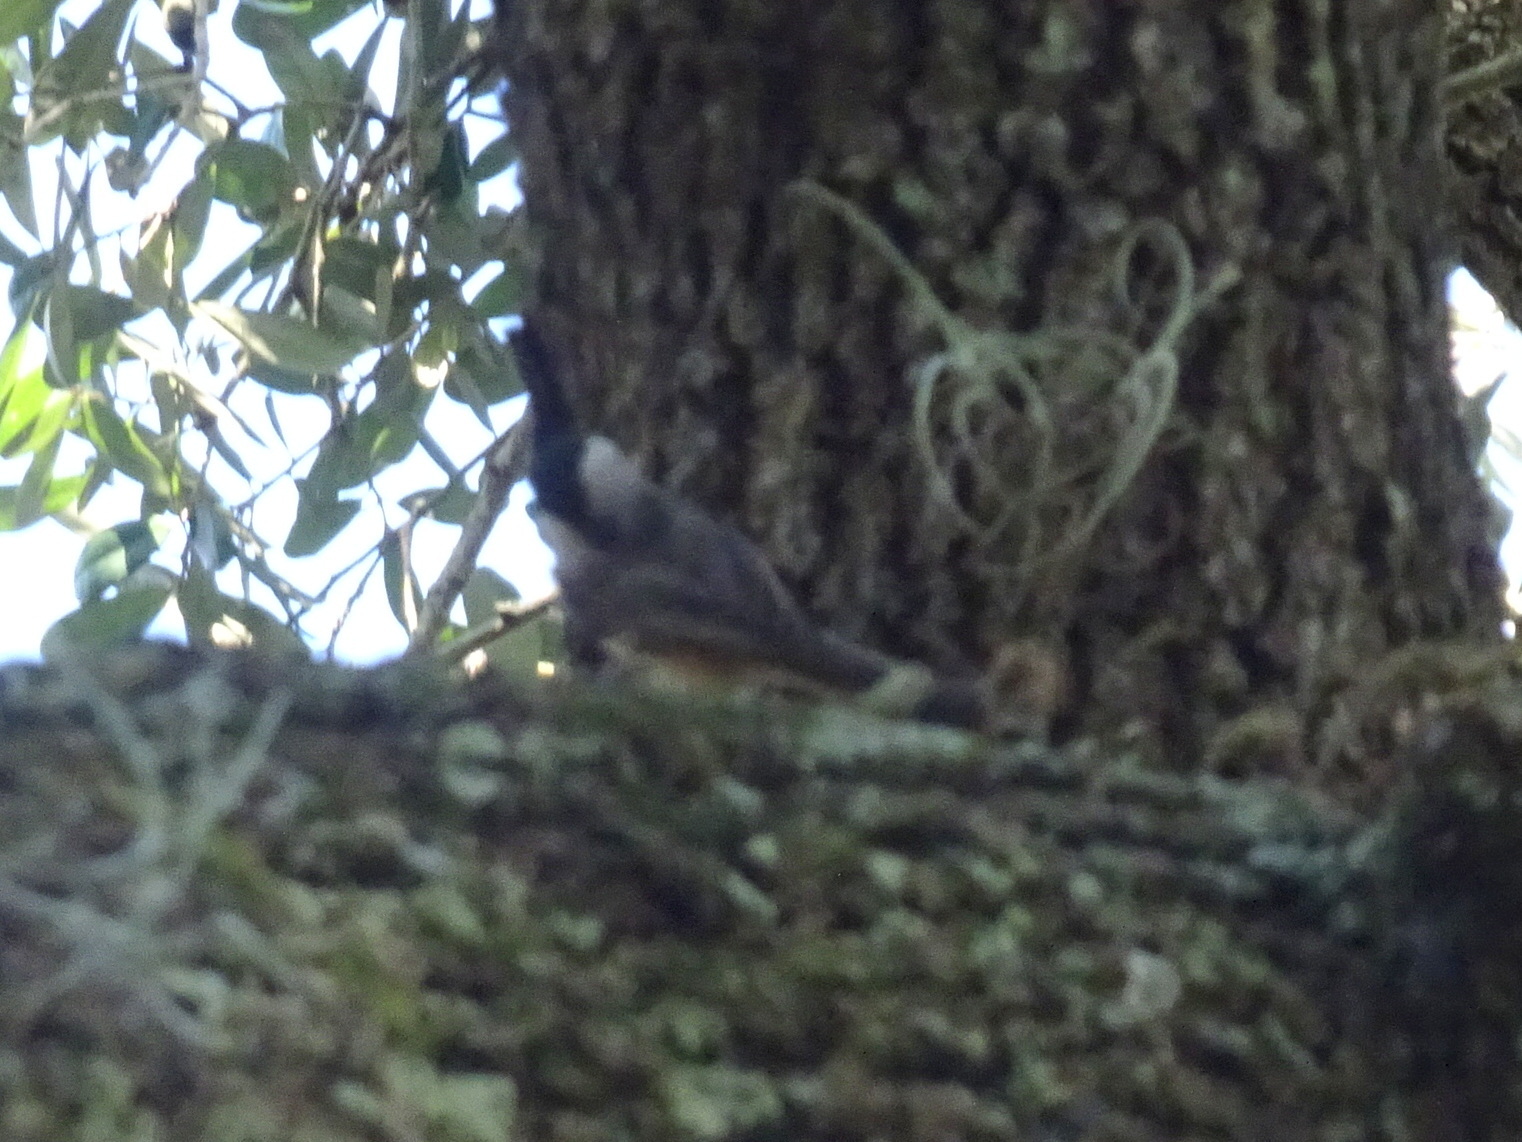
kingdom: Animalia
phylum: Chordata
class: Aves
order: Passeriformes
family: Paridae
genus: Poecile
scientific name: Poecile carolinensis
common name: Carolina chickadee
